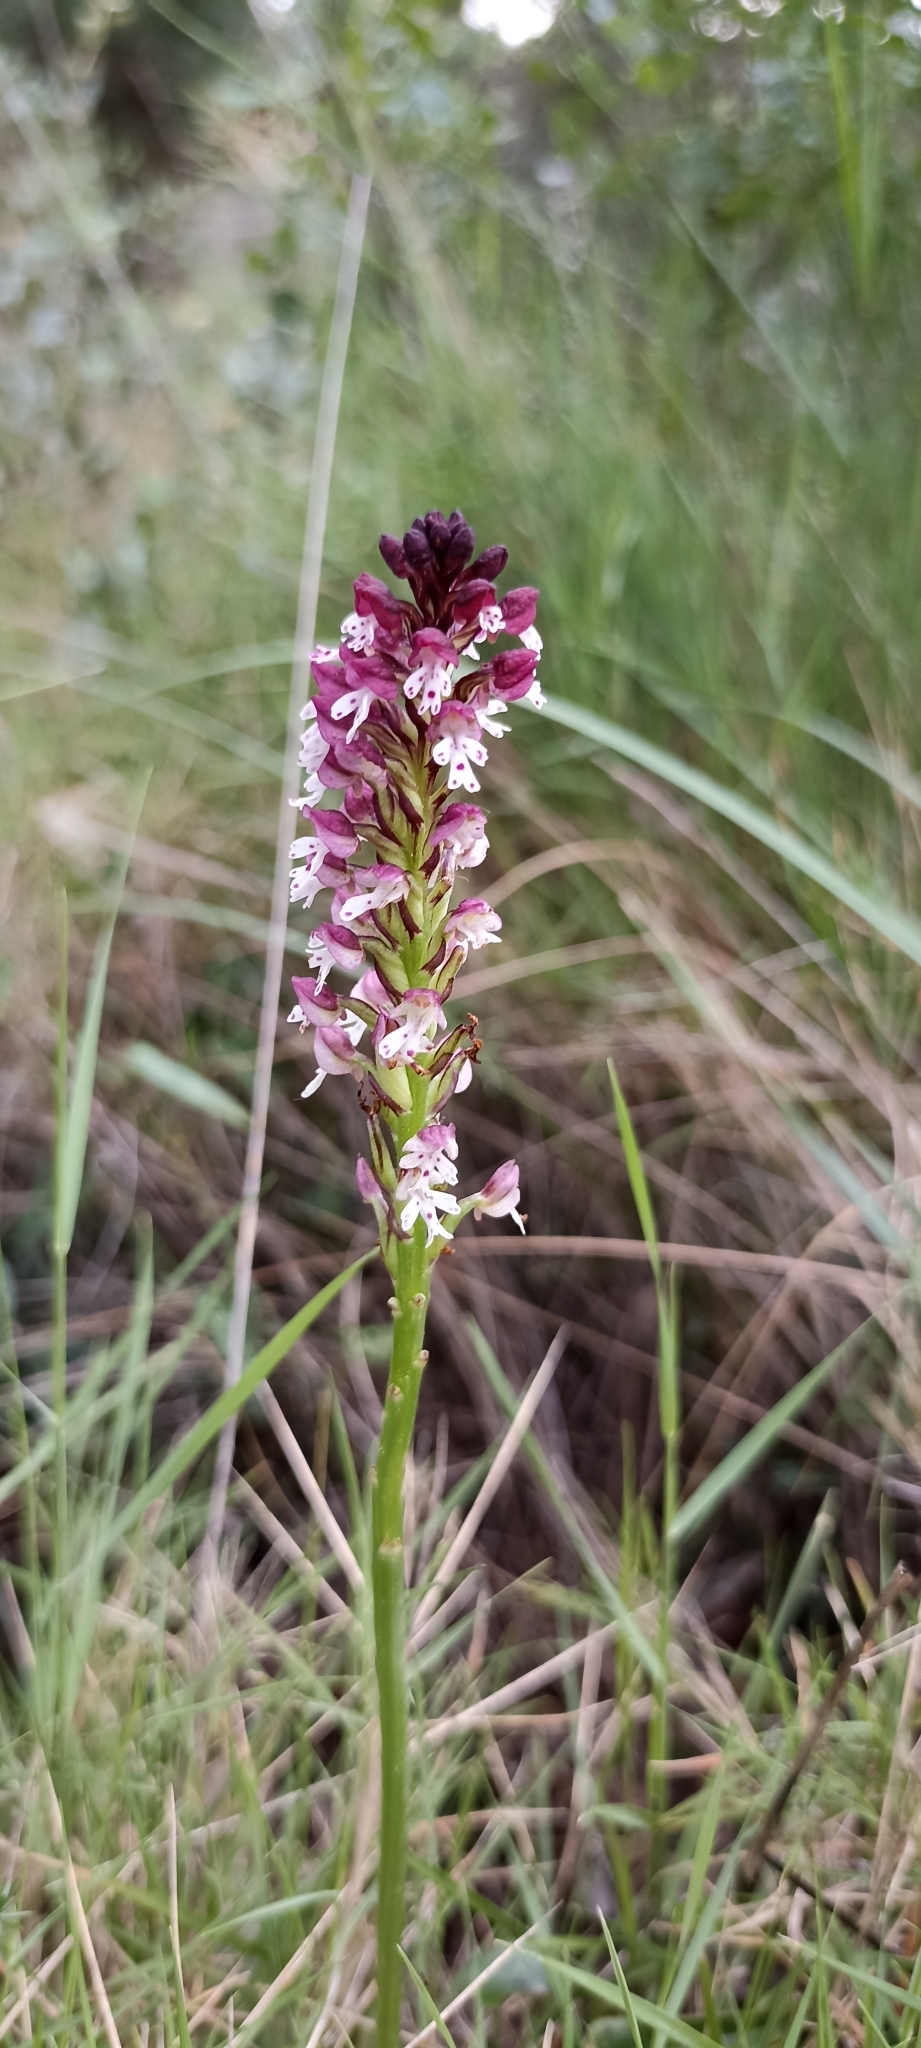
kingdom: Plantae
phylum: Tracheophyta
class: Liliopsida
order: Asparagales
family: Orchidaceae
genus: Neotinea
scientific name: Neotinea ustulata
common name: Burnt orchid
